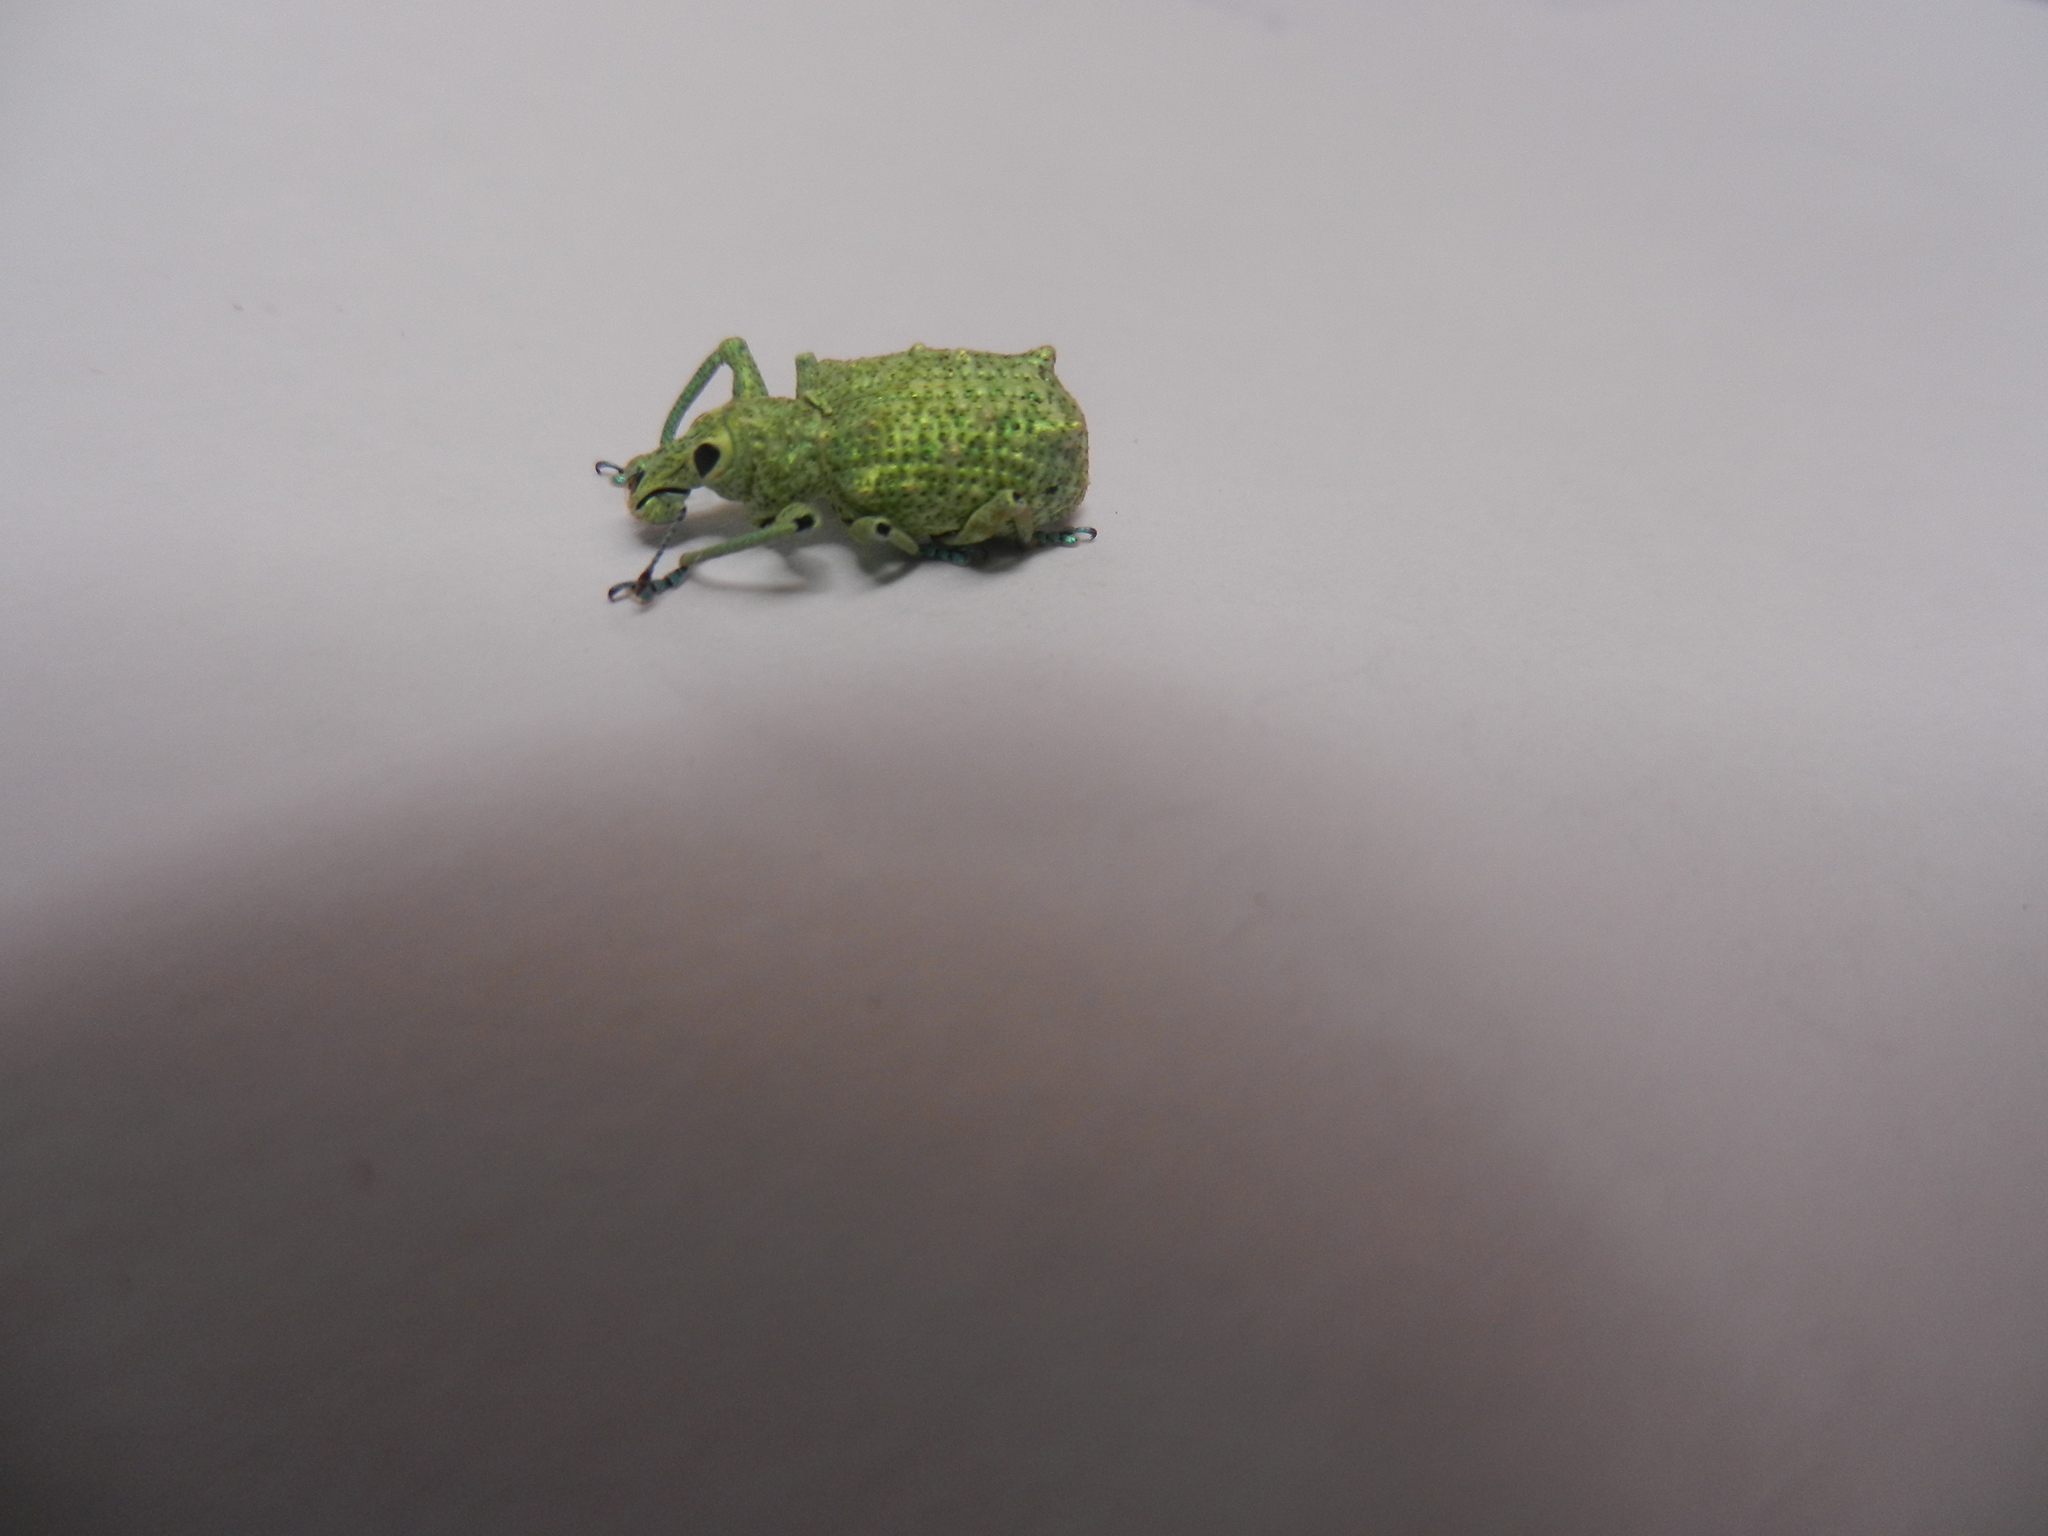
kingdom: Animalia
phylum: Arthropoda
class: Insecta
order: Coleoptera
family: Curculionidae
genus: Rhigus
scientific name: Rhigus speciosus
